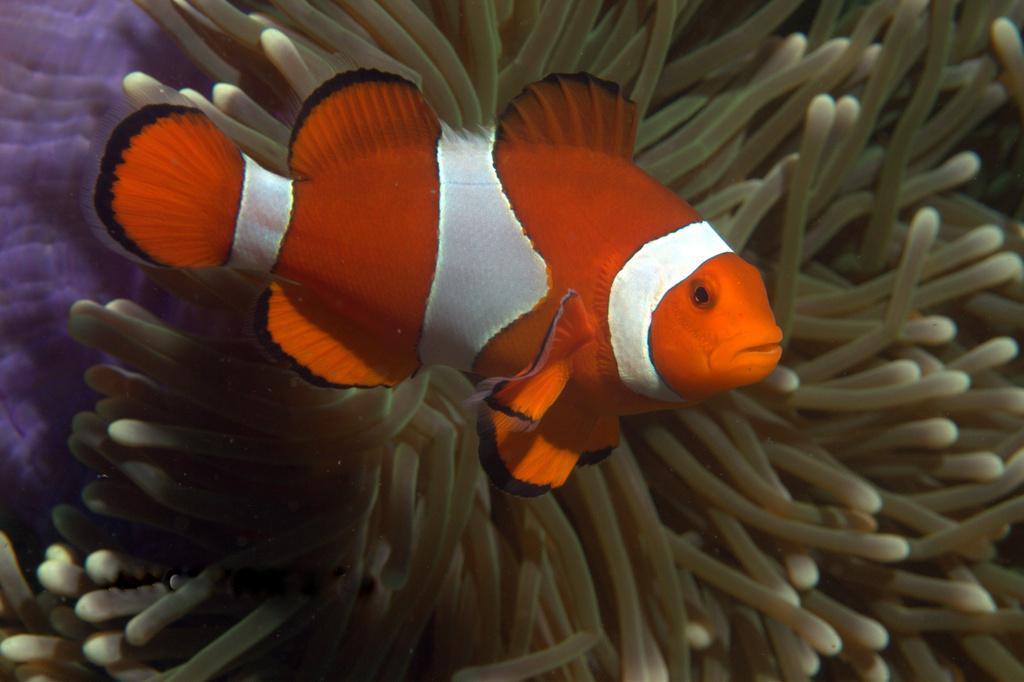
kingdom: Animalia
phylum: Chordata
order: Perciformes
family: Pomacentridae
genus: Amphiprion
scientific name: Amphiprion ocellaris
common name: Clown anemonefish
